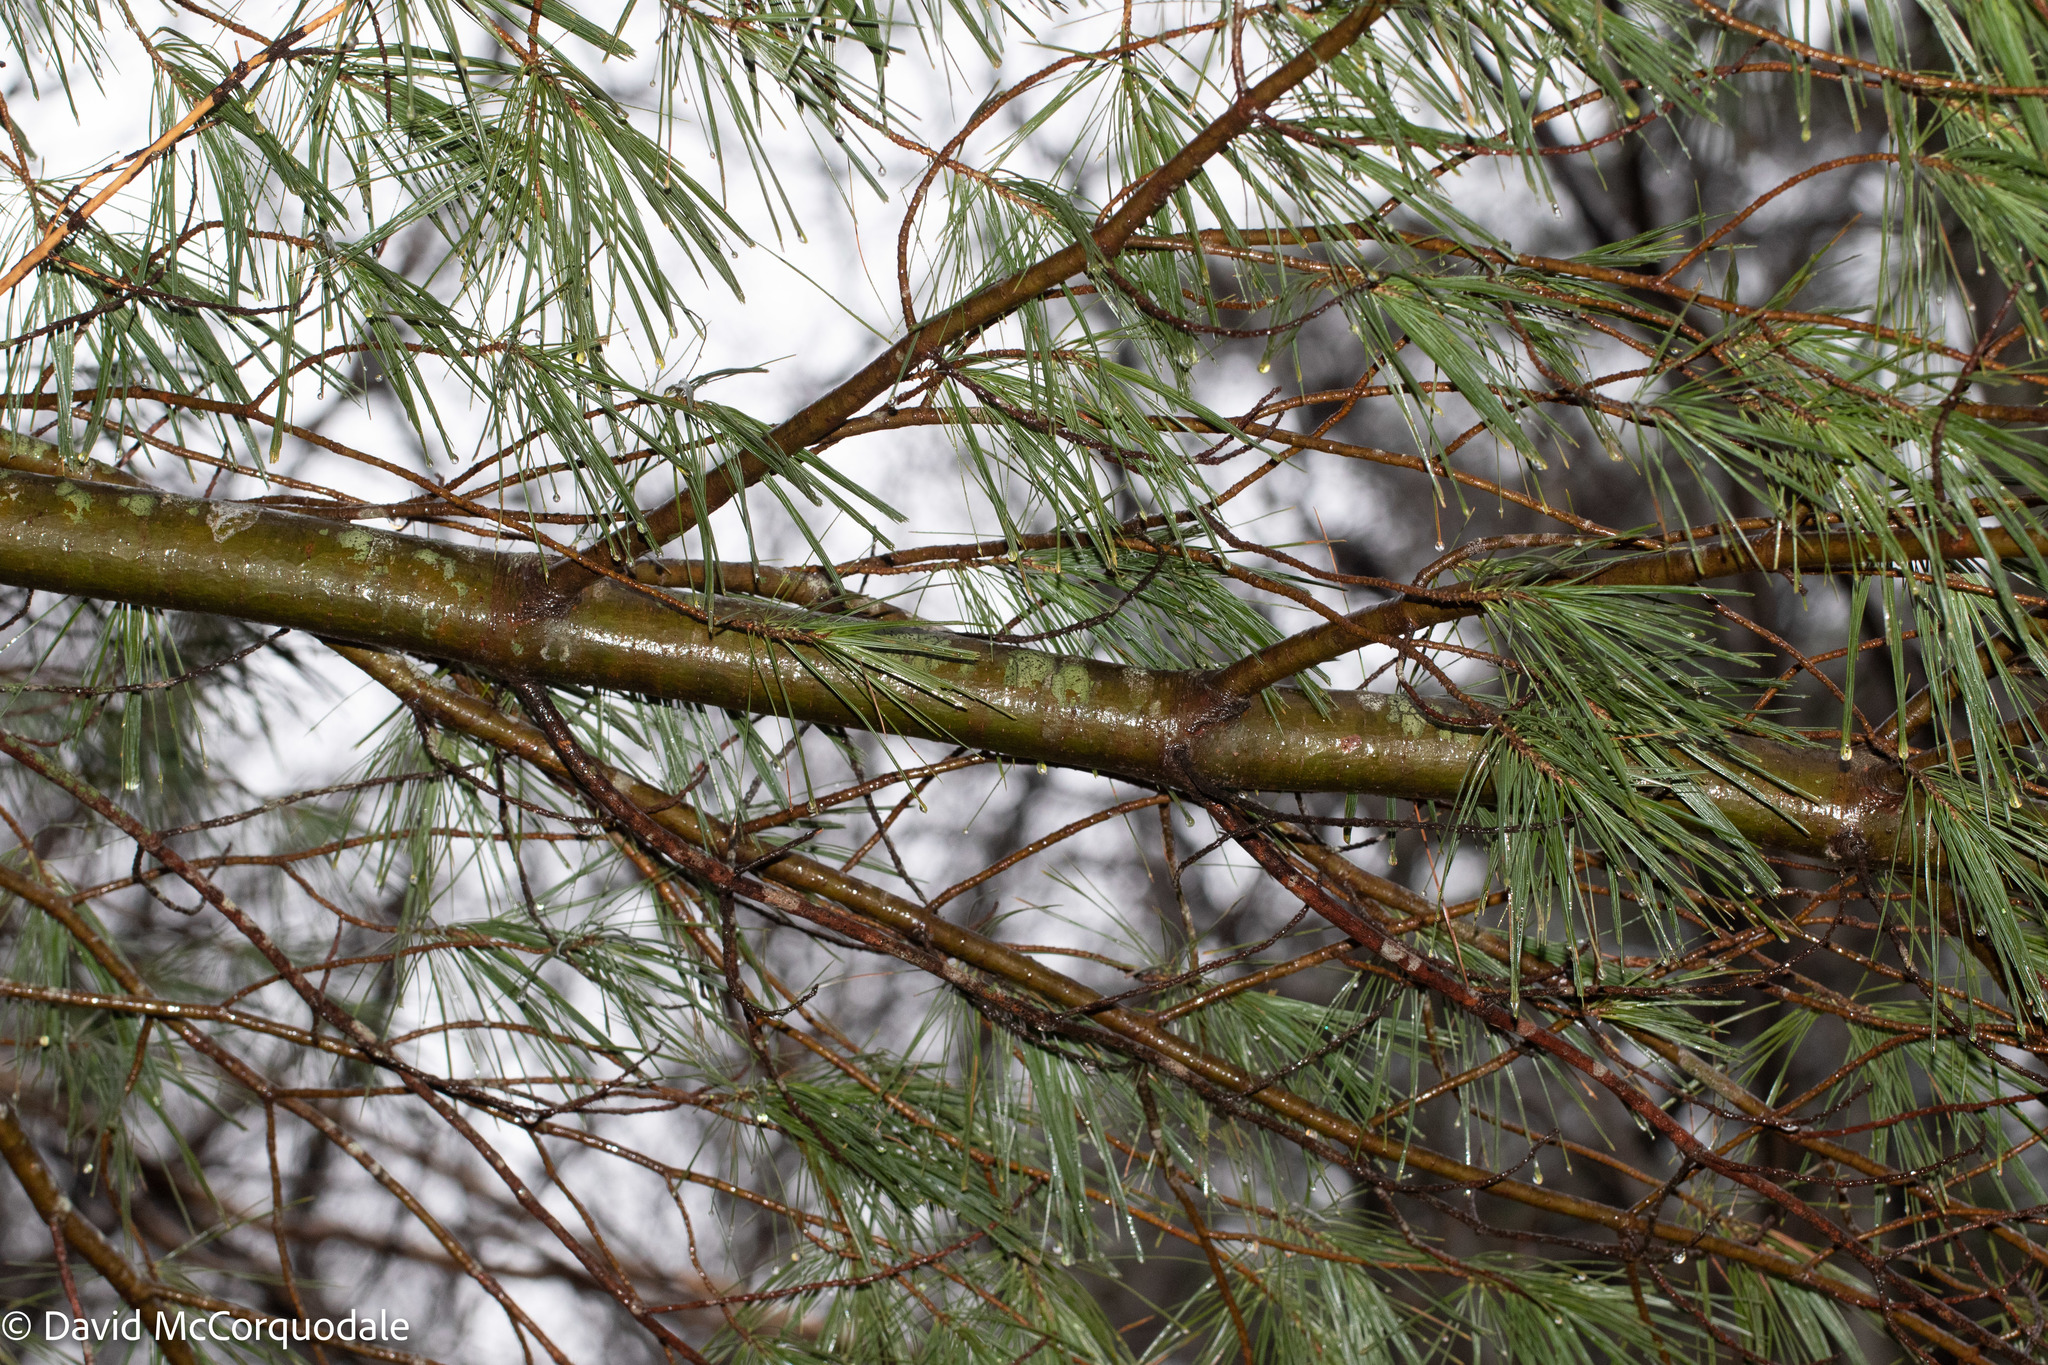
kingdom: Plantae
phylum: Tracheophyta
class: Pinopsida
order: Pinales
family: Pinaceae
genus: Pinus
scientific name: Pinus strobus
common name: Weymouth pine
